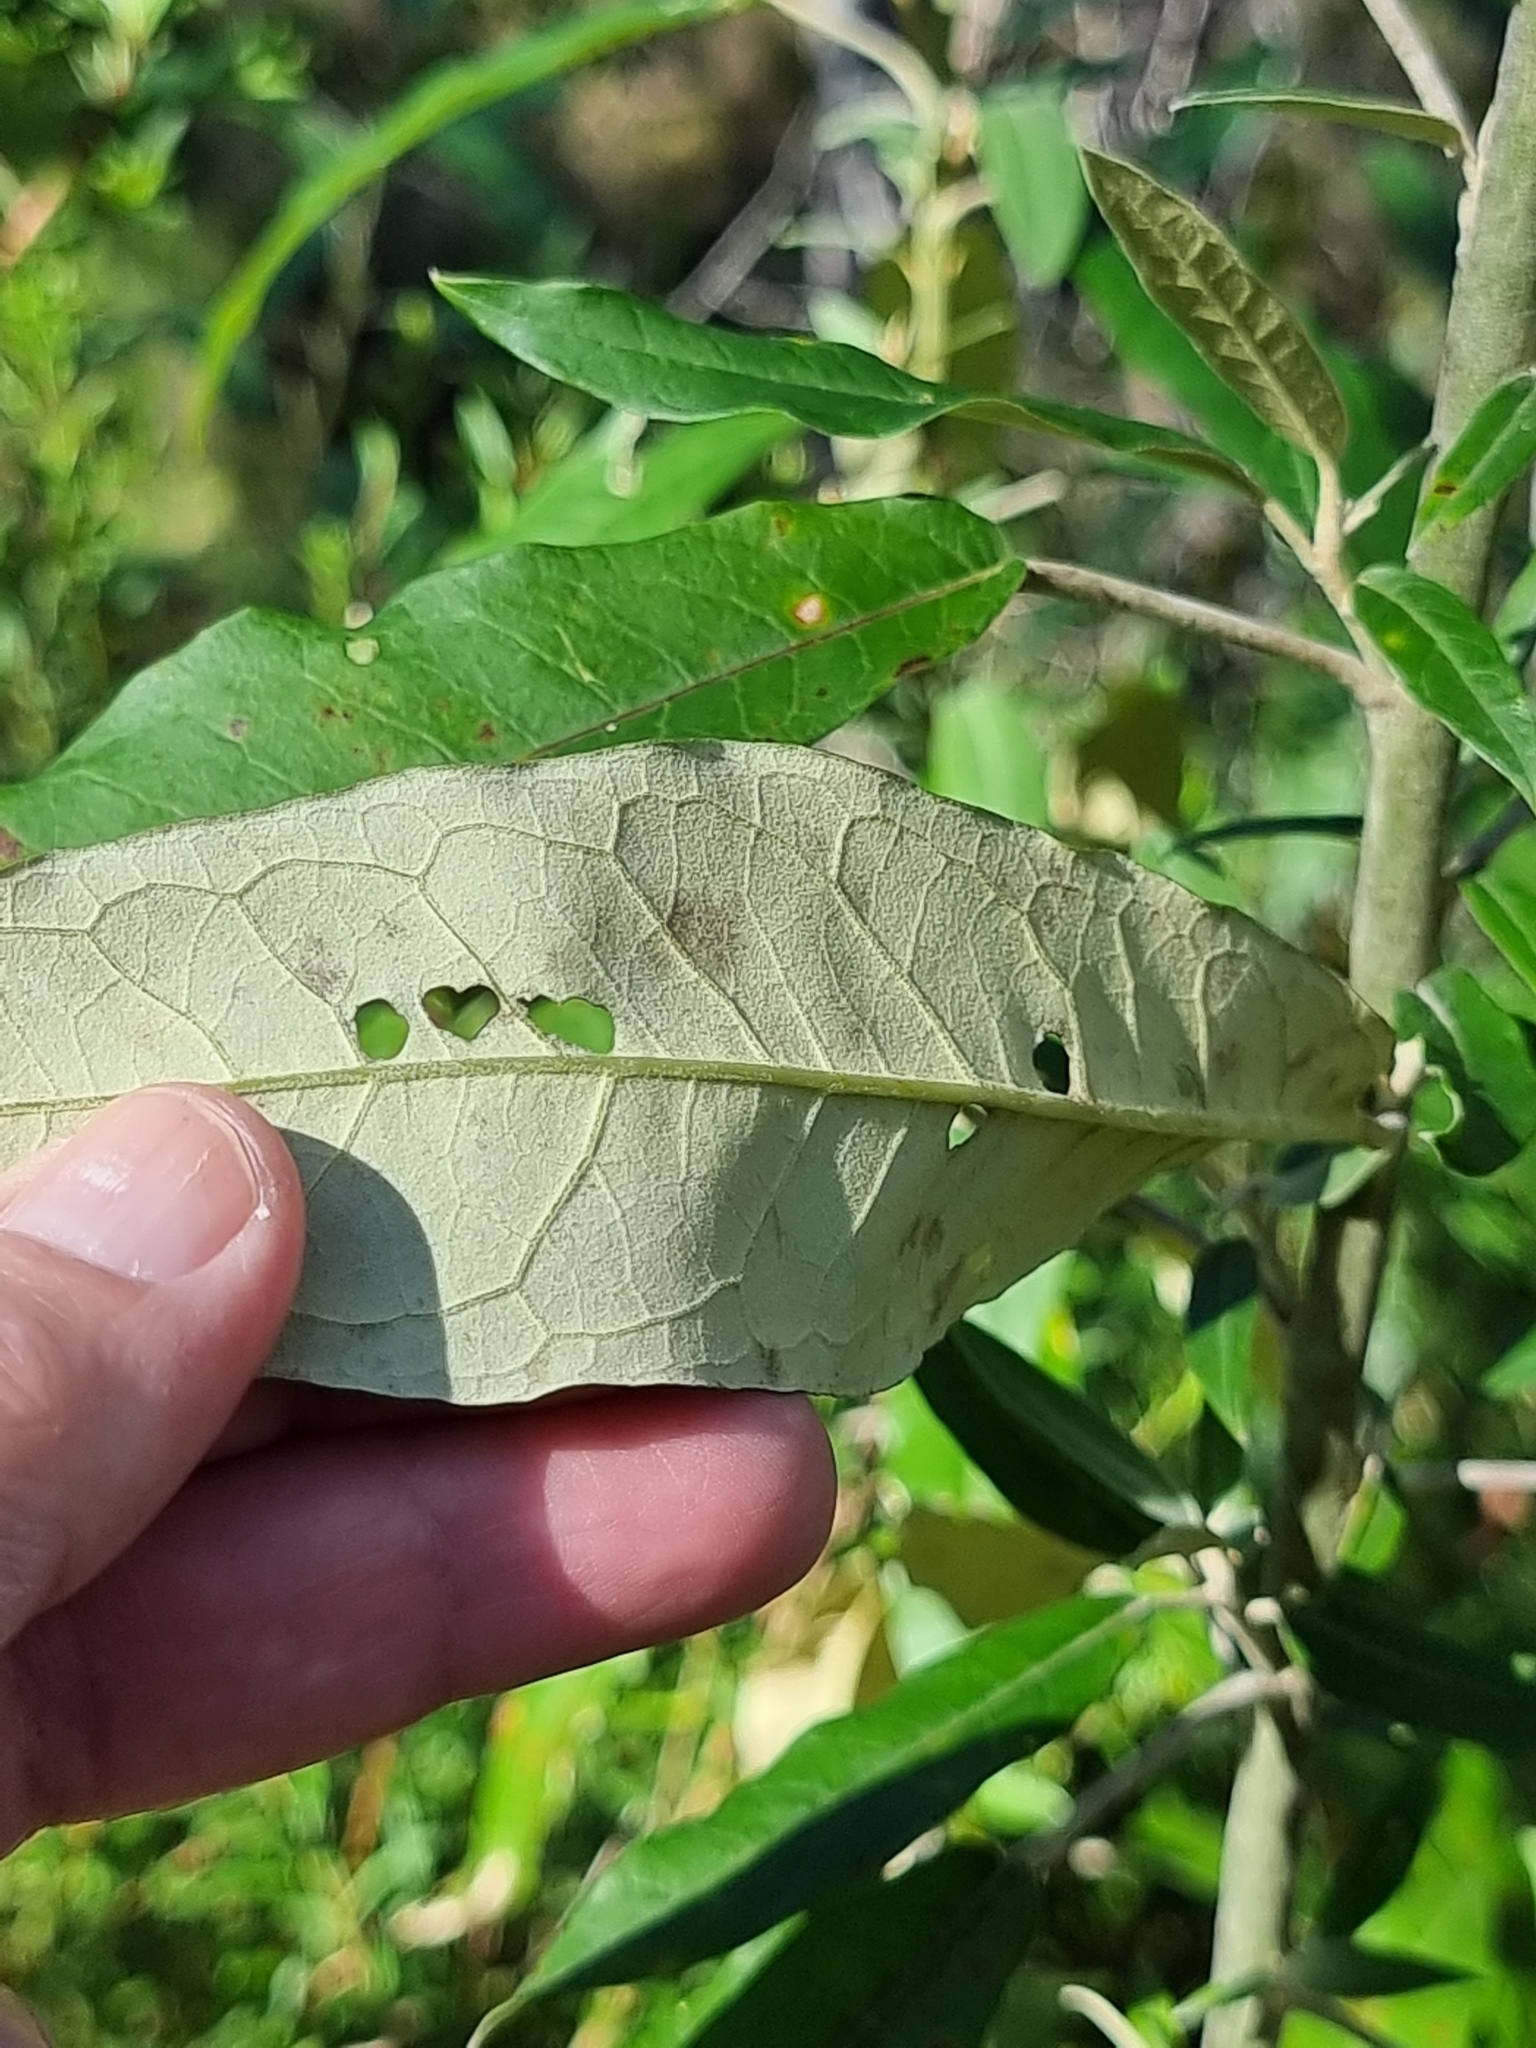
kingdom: Plantae
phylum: Tracheophyta
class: Magnoliopsida
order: Apiales
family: Araliaceae
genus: Astrotricha
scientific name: Astrotricha latifolia
